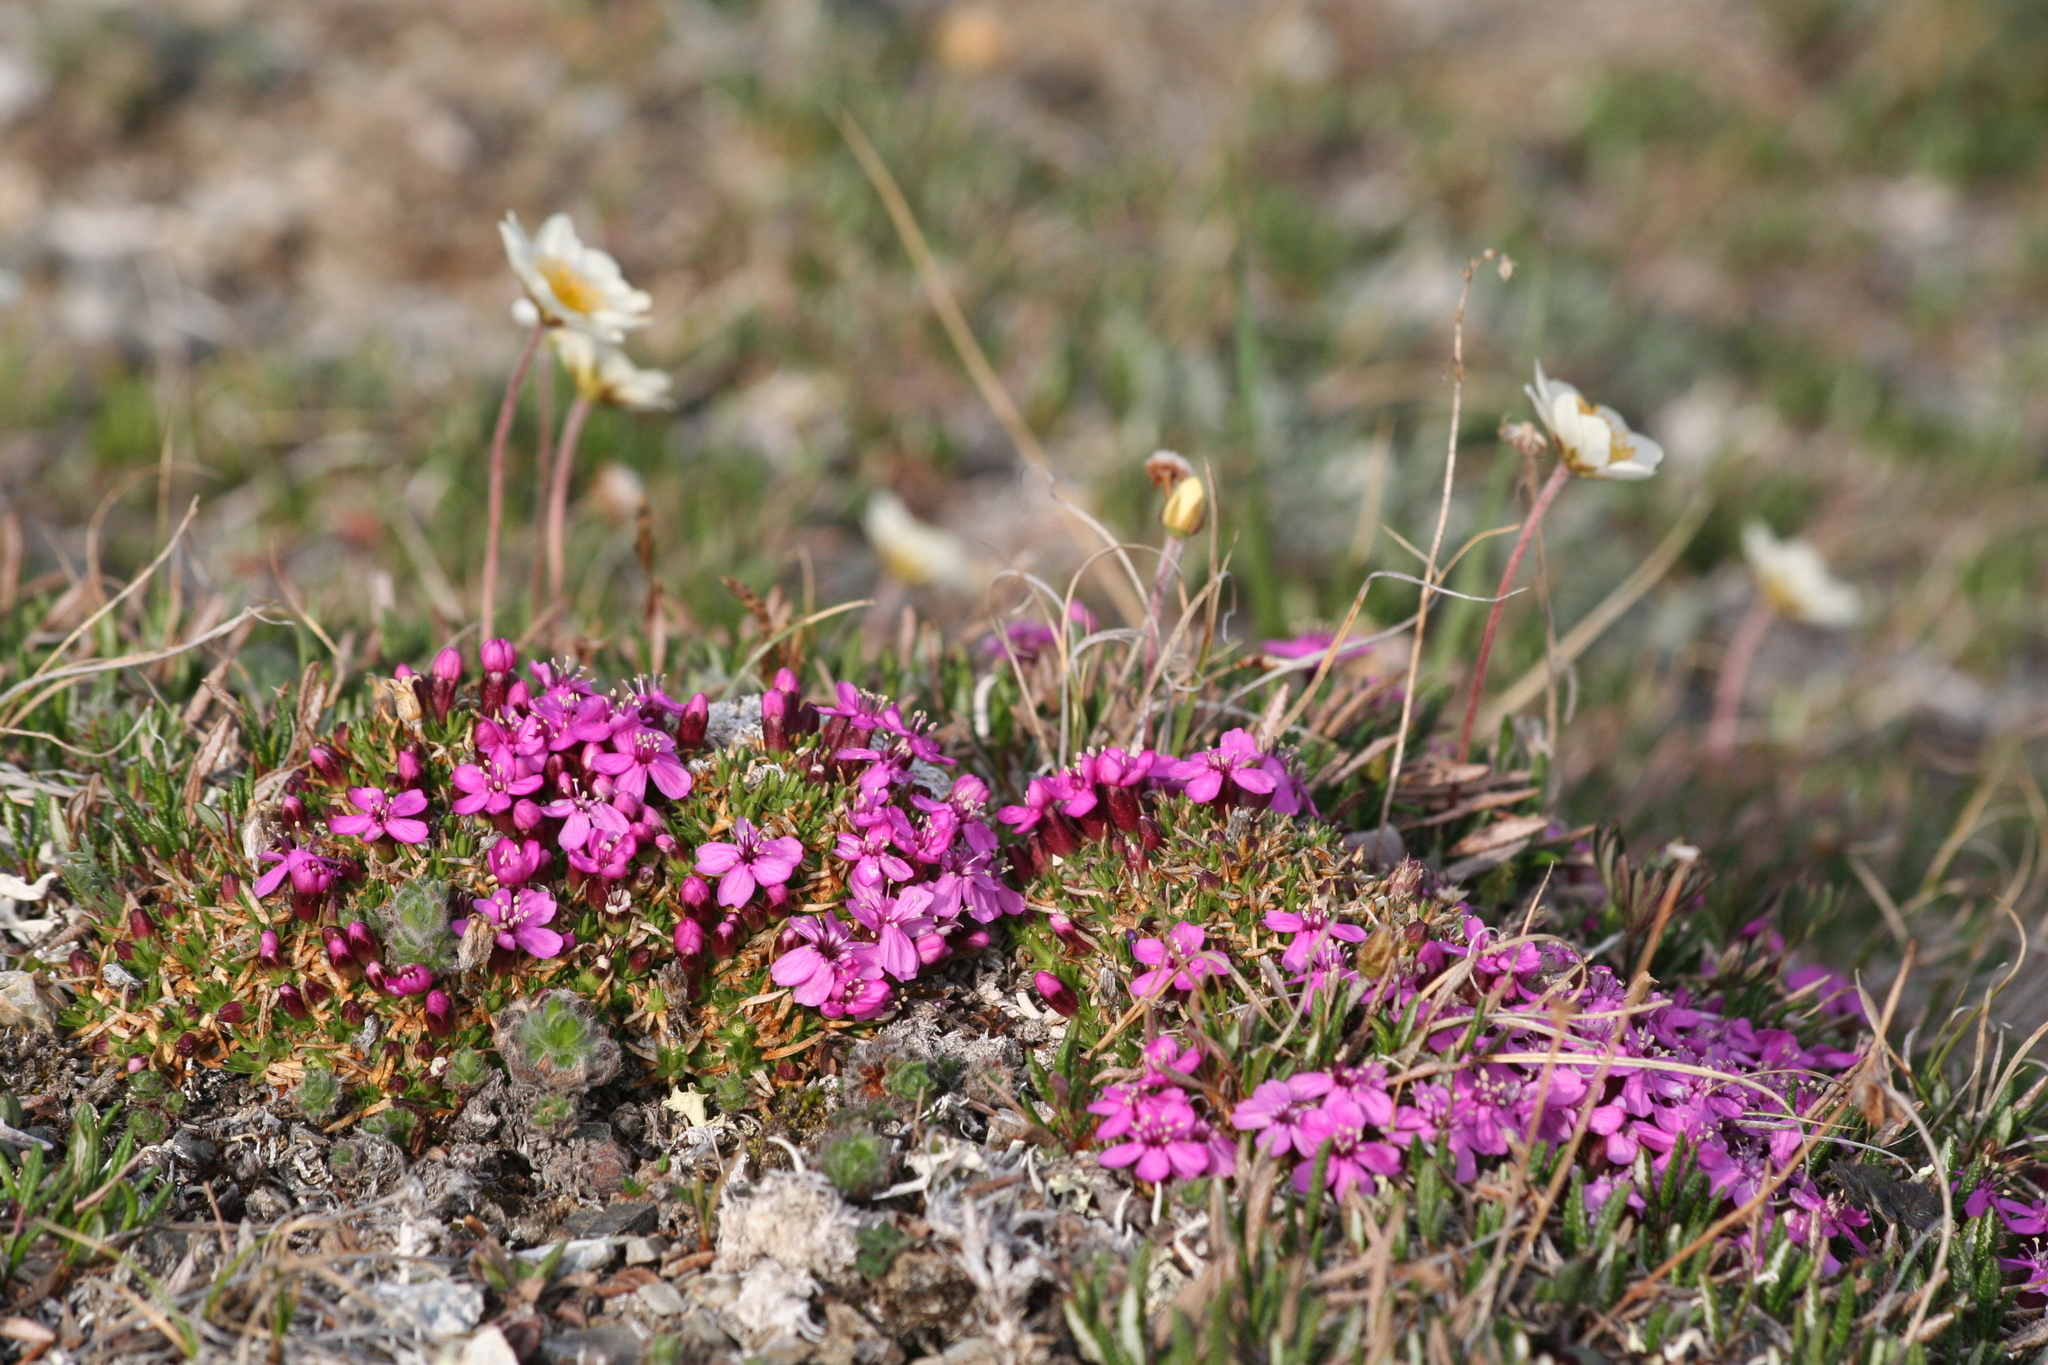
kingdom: Plantae
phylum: Tracheophyta
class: Magnoliopsida
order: Caryophyllales
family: Caryophyllaceae
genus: Silene
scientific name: Silene acaulis
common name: Moss campion
